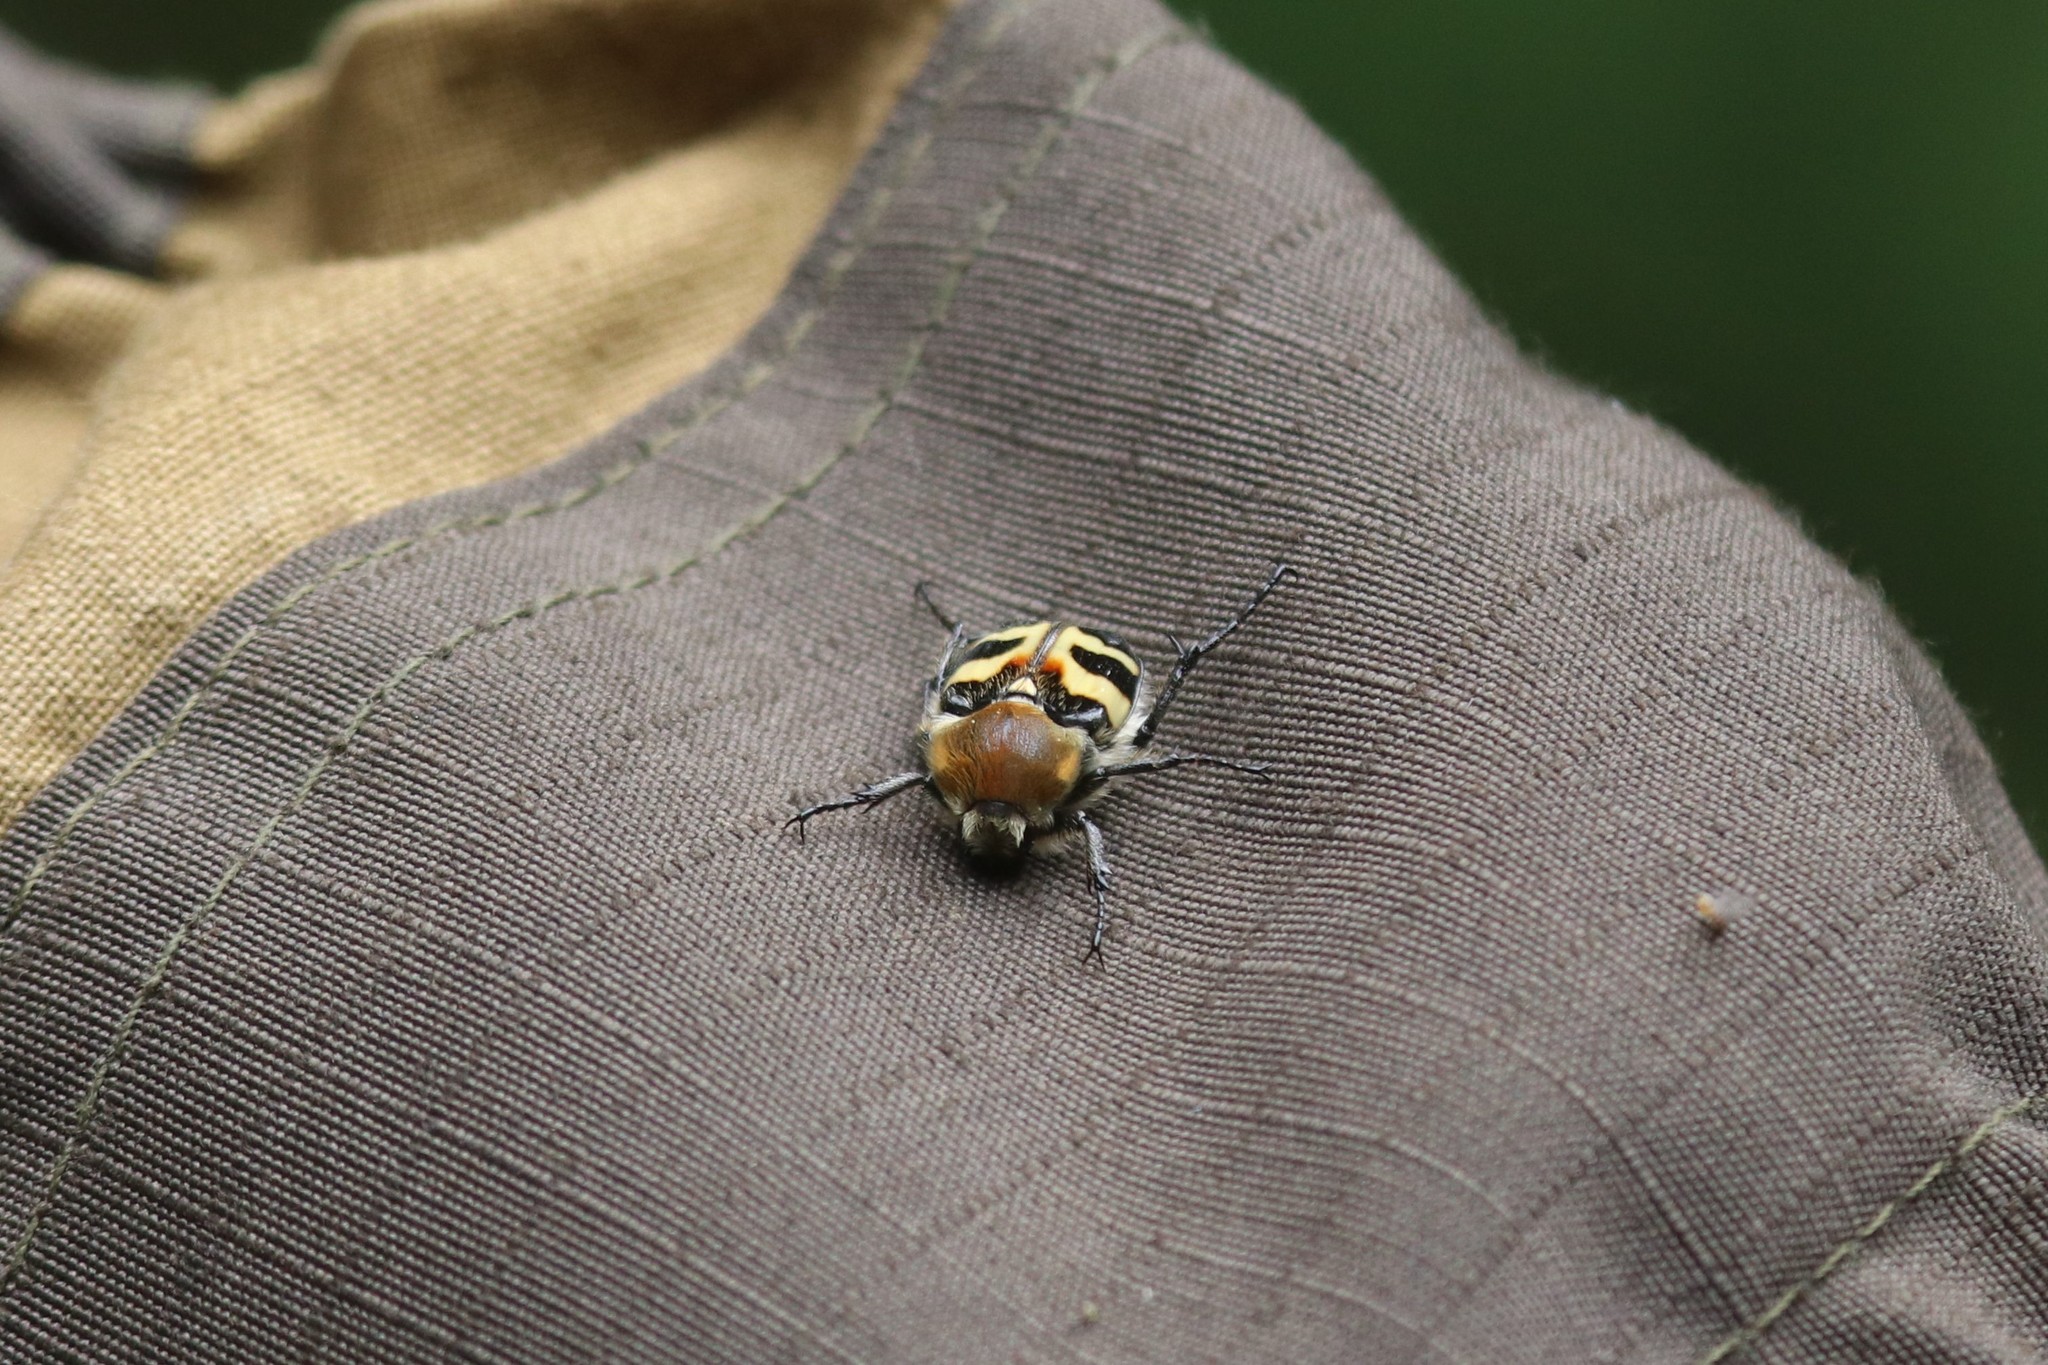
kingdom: Animalia
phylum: Arthropoda
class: Insecta
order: Coleoptera
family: Scarabaeidae
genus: Trichius
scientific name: Trichius fasciatus
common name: Bee beetle
